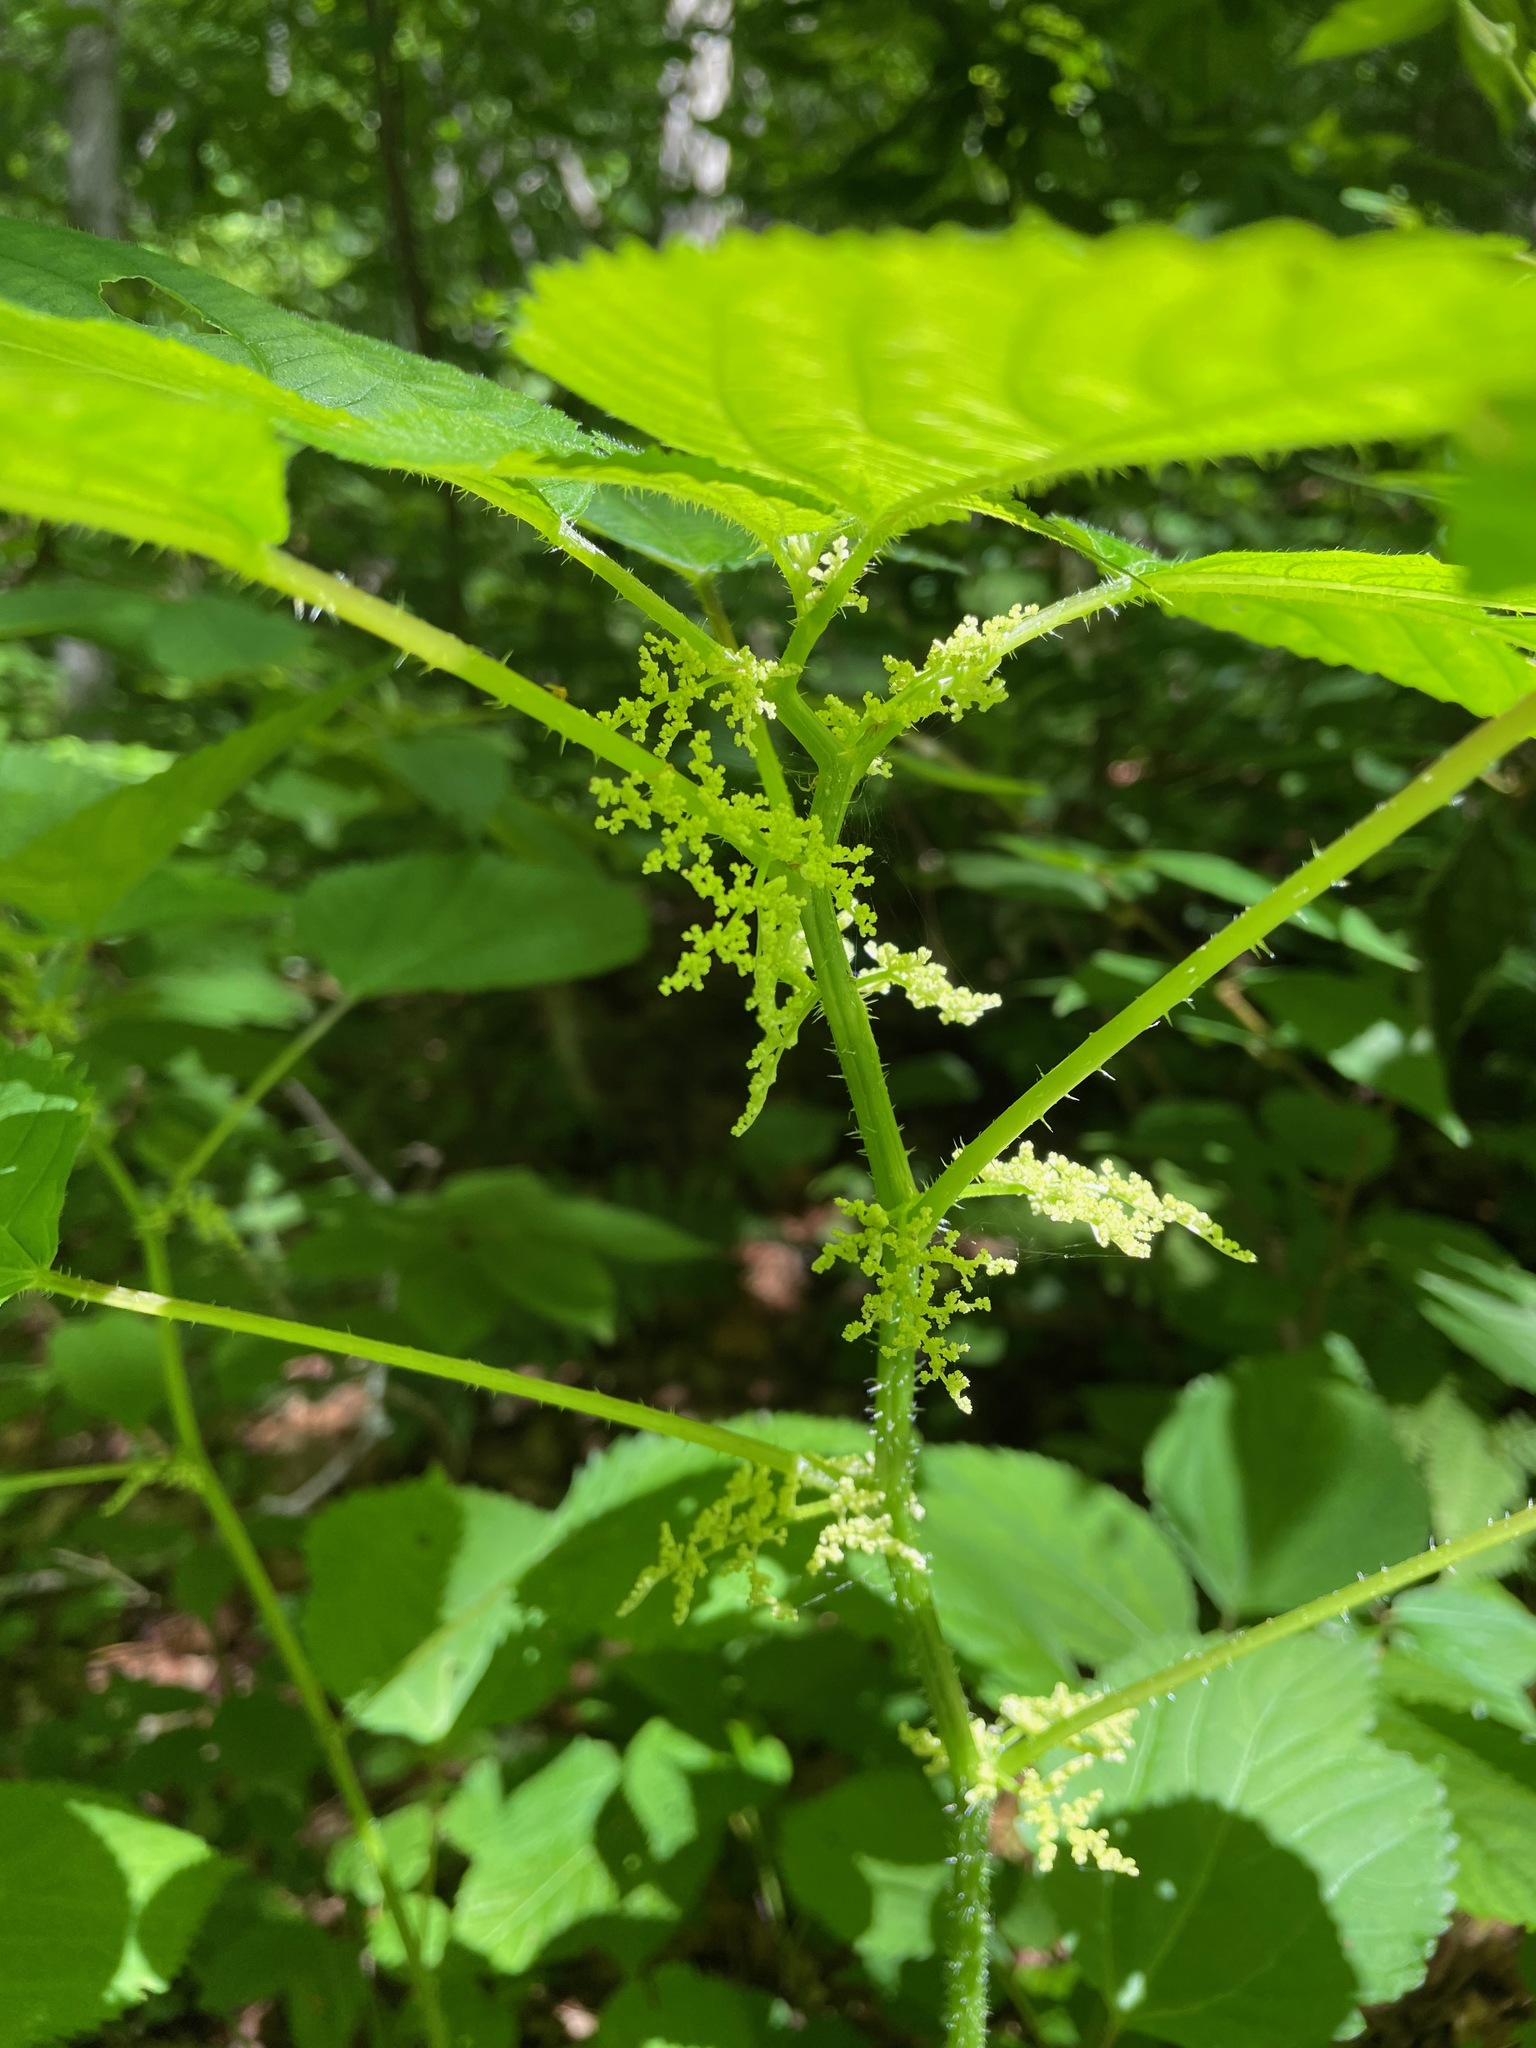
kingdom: Plantae
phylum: Tracheophyta
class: Magnoliopsida
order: Rosales
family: Urticaceae
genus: Laportea
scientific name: Laportea canadensis
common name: Canada nettle
